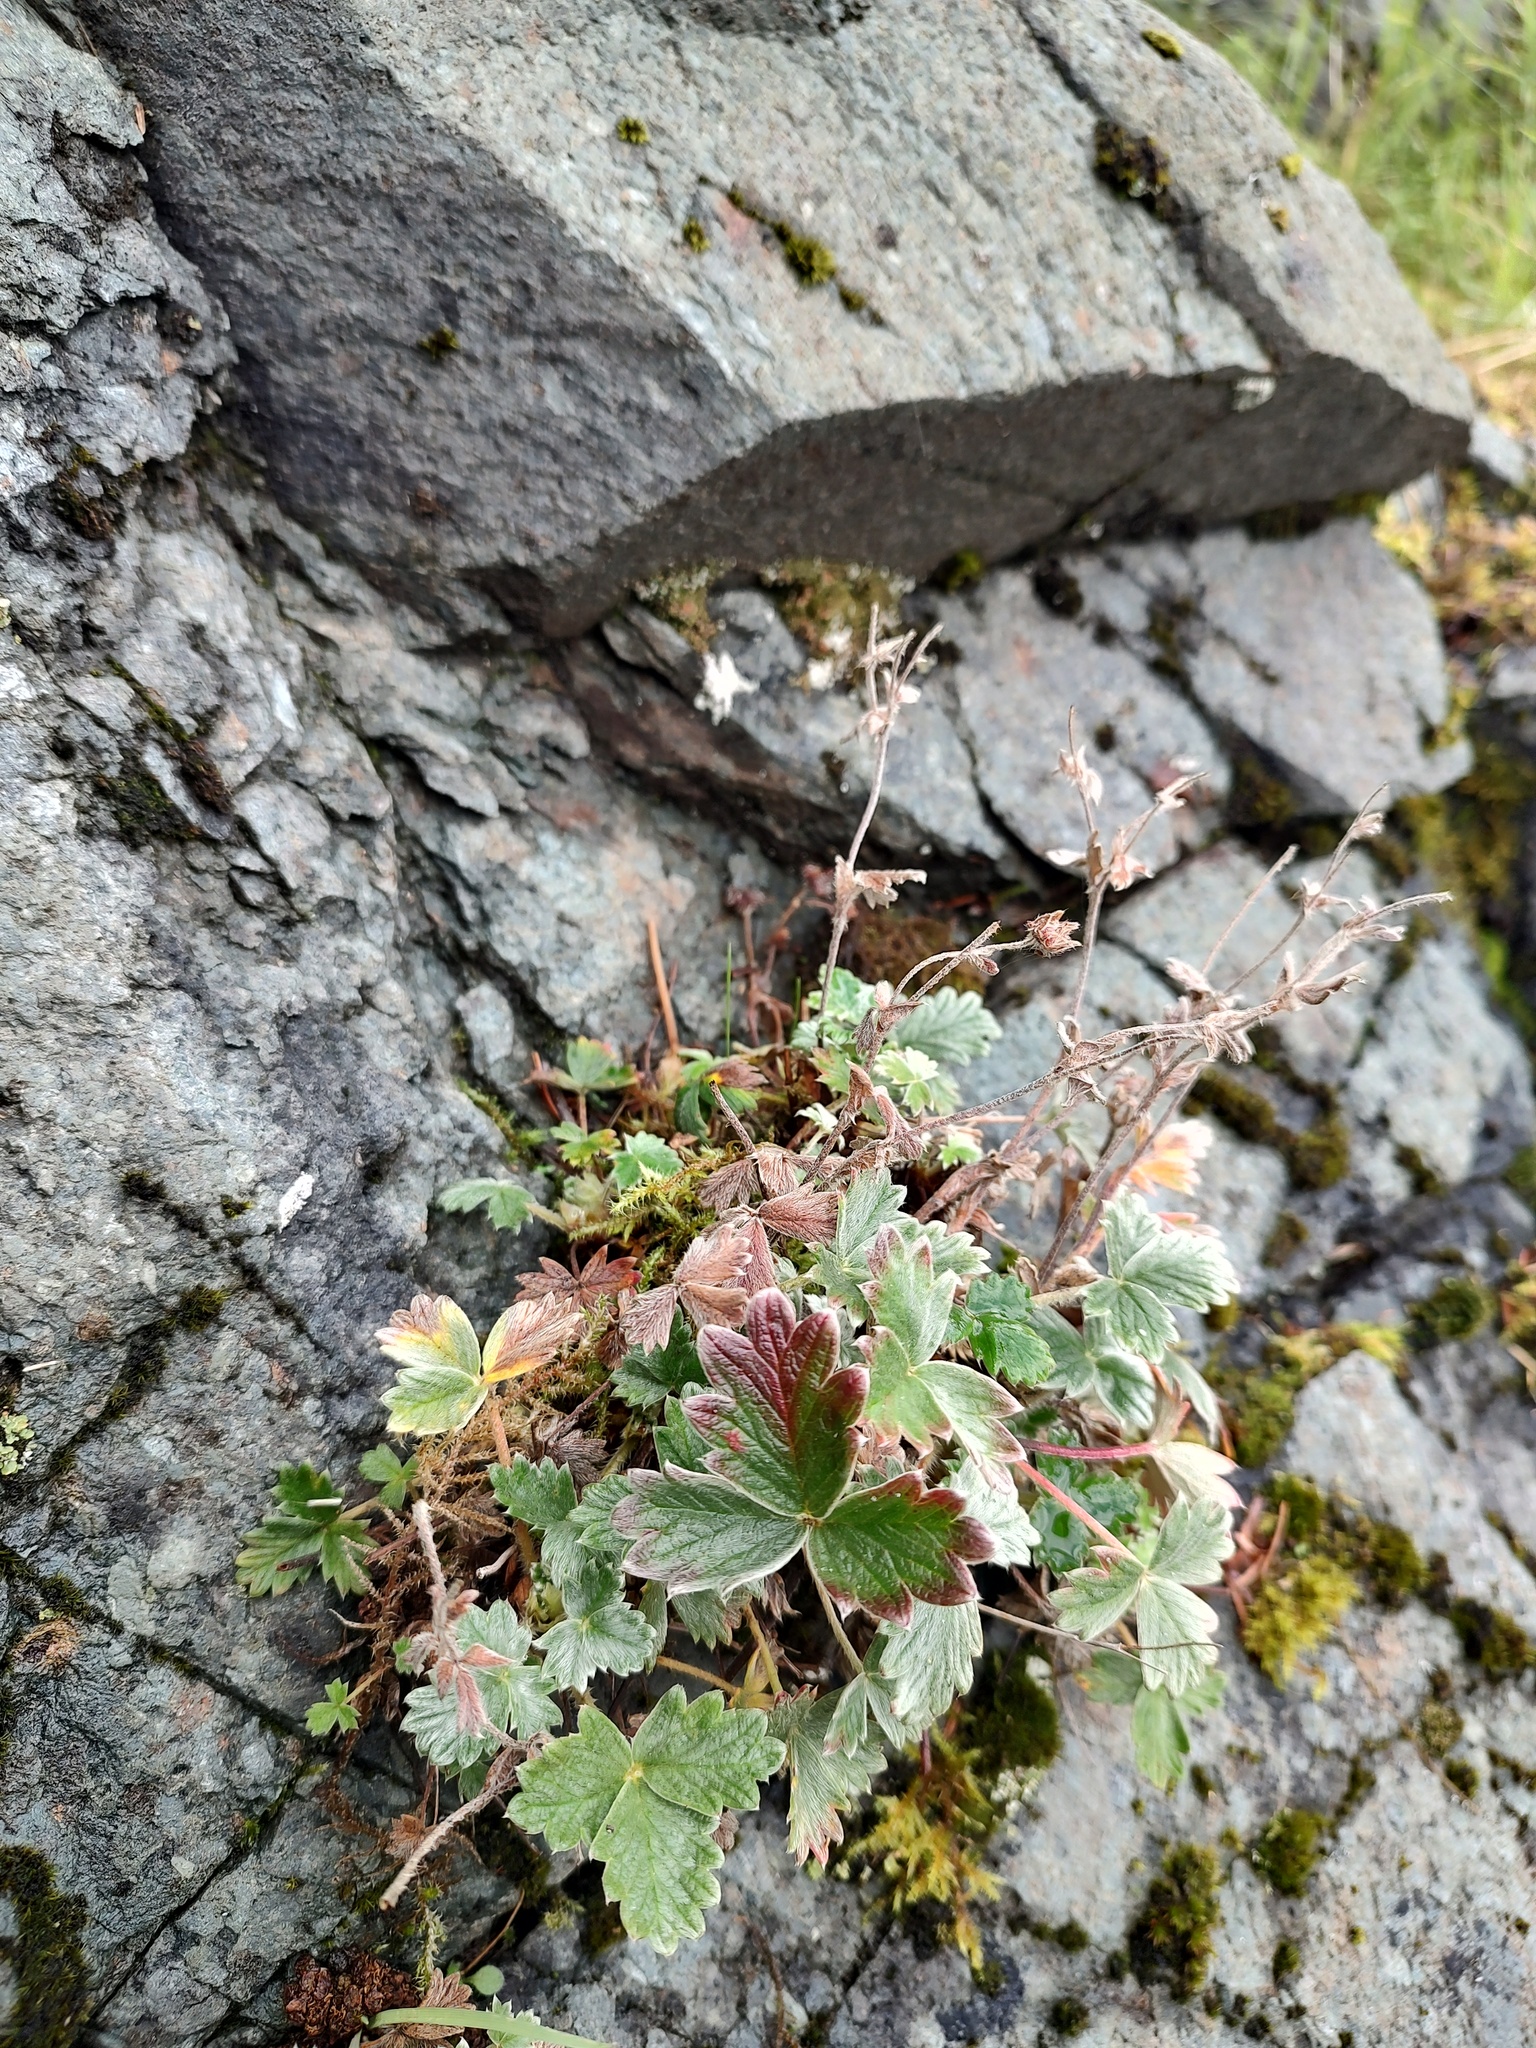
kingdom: Plantae
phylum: Tracheophyta
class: Magnoliopsida
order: Rosales
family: Rosaceae
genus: Potentilla
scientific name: Potentilla villosa
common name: Northern cinquefoil
